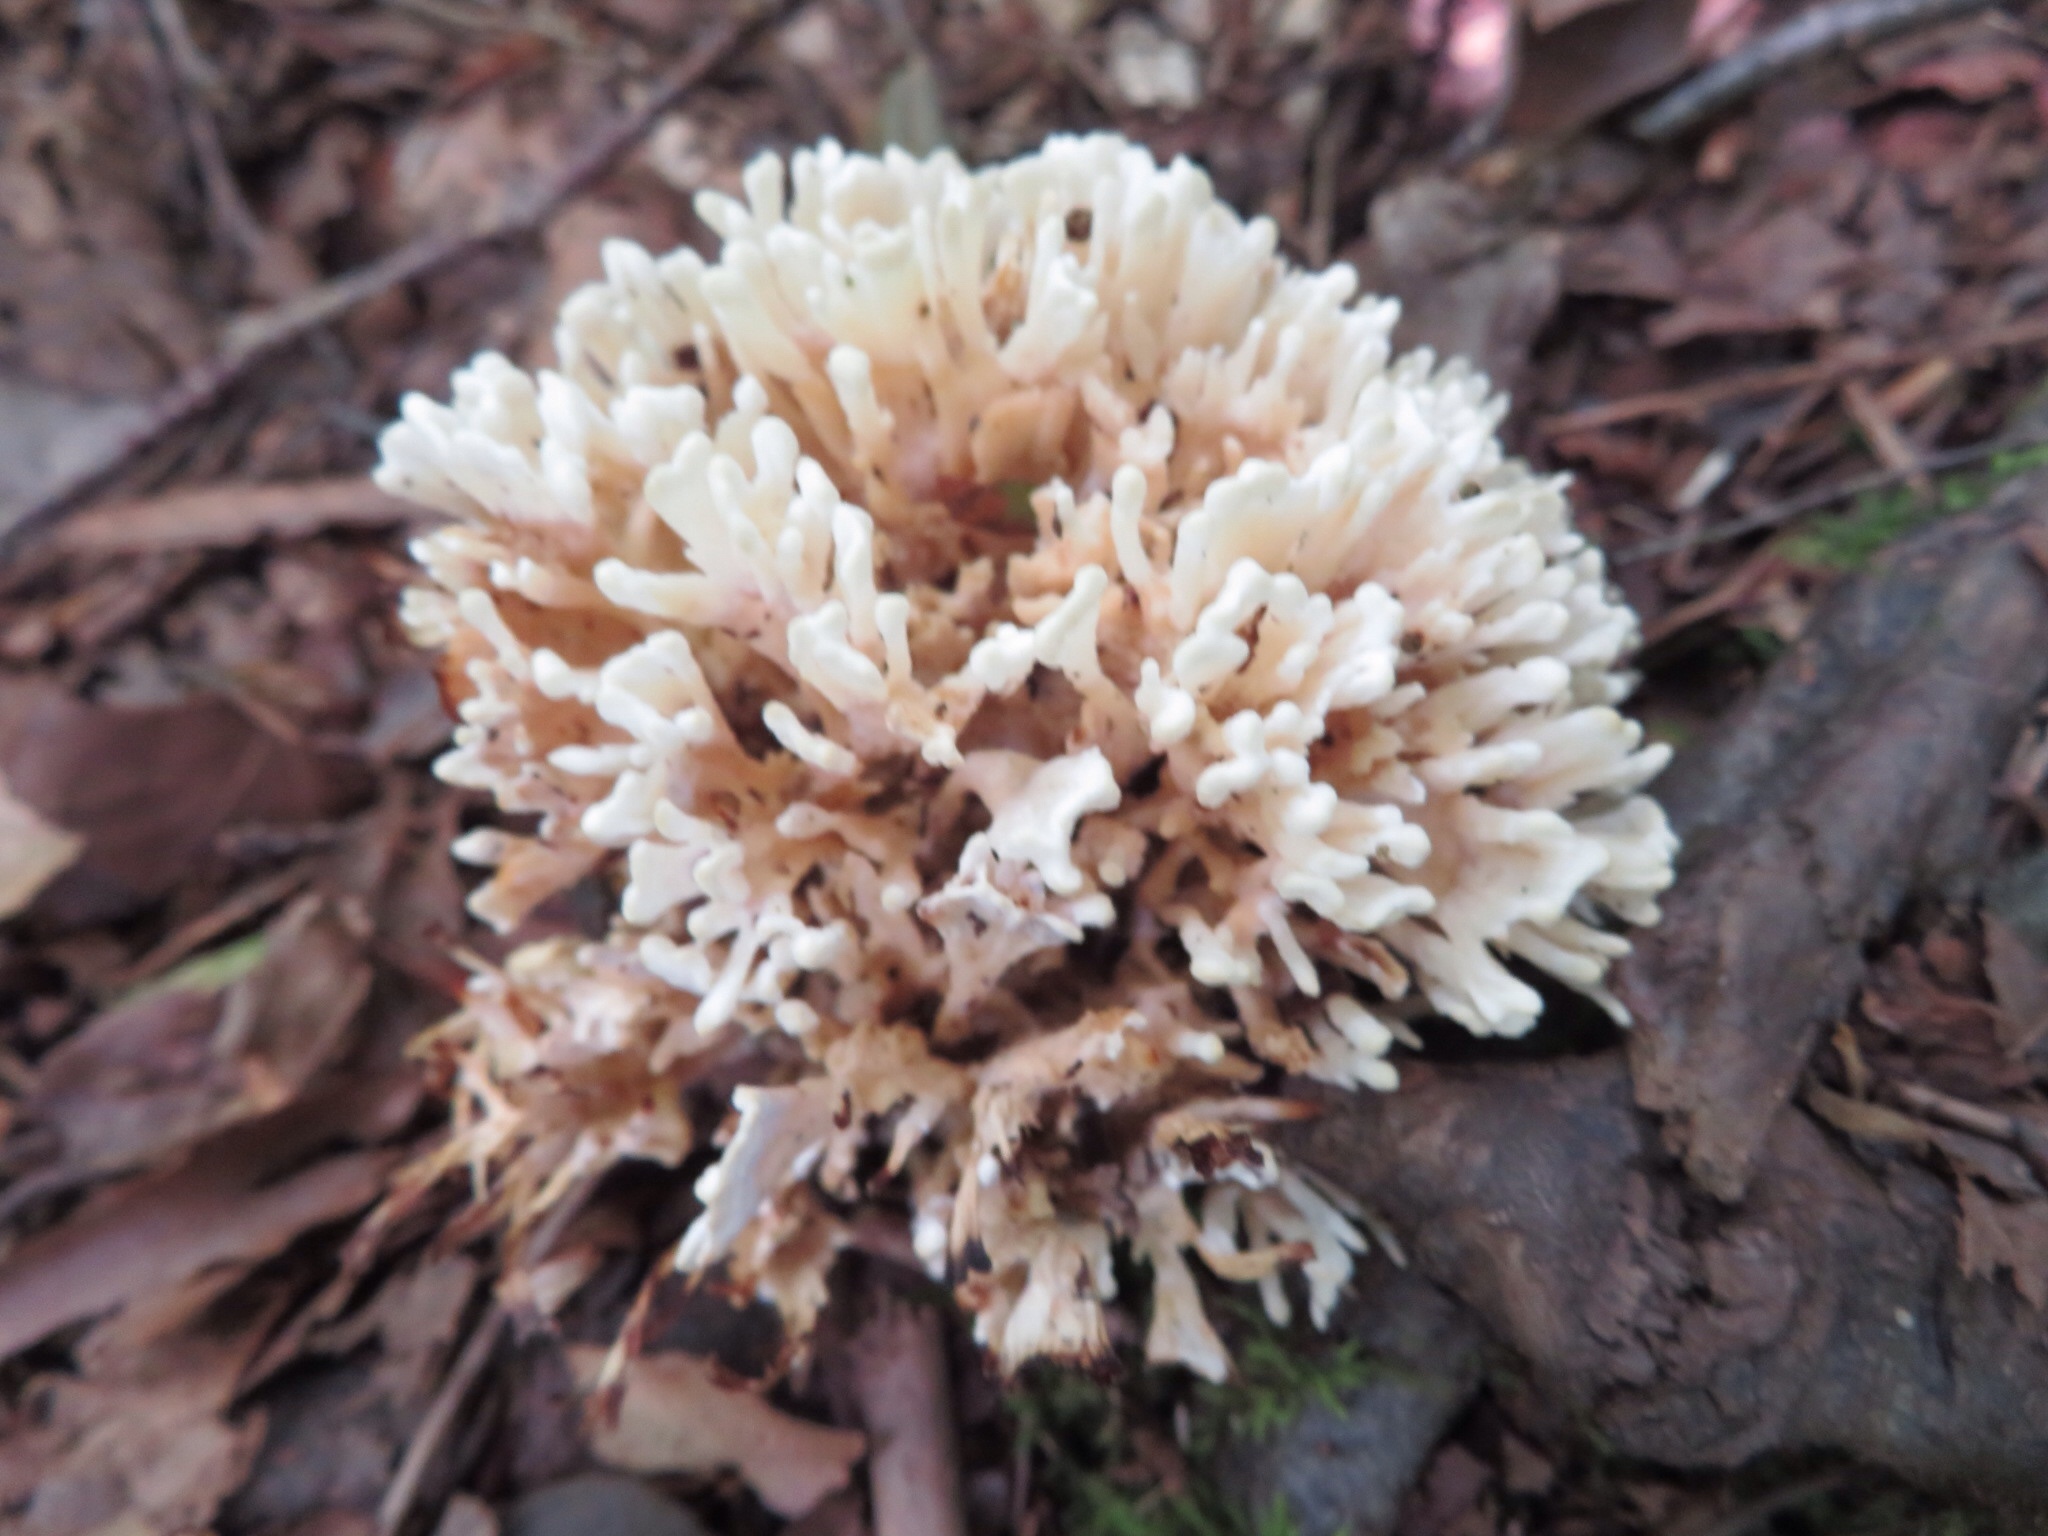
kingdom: Fungi
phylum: Basidiomycota
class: Agaricomycetes
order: Sebacinales
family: Sebacinaceae
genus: Sebacina
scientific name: Sebacina schweinitzii
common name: Jellied false coral fungus
